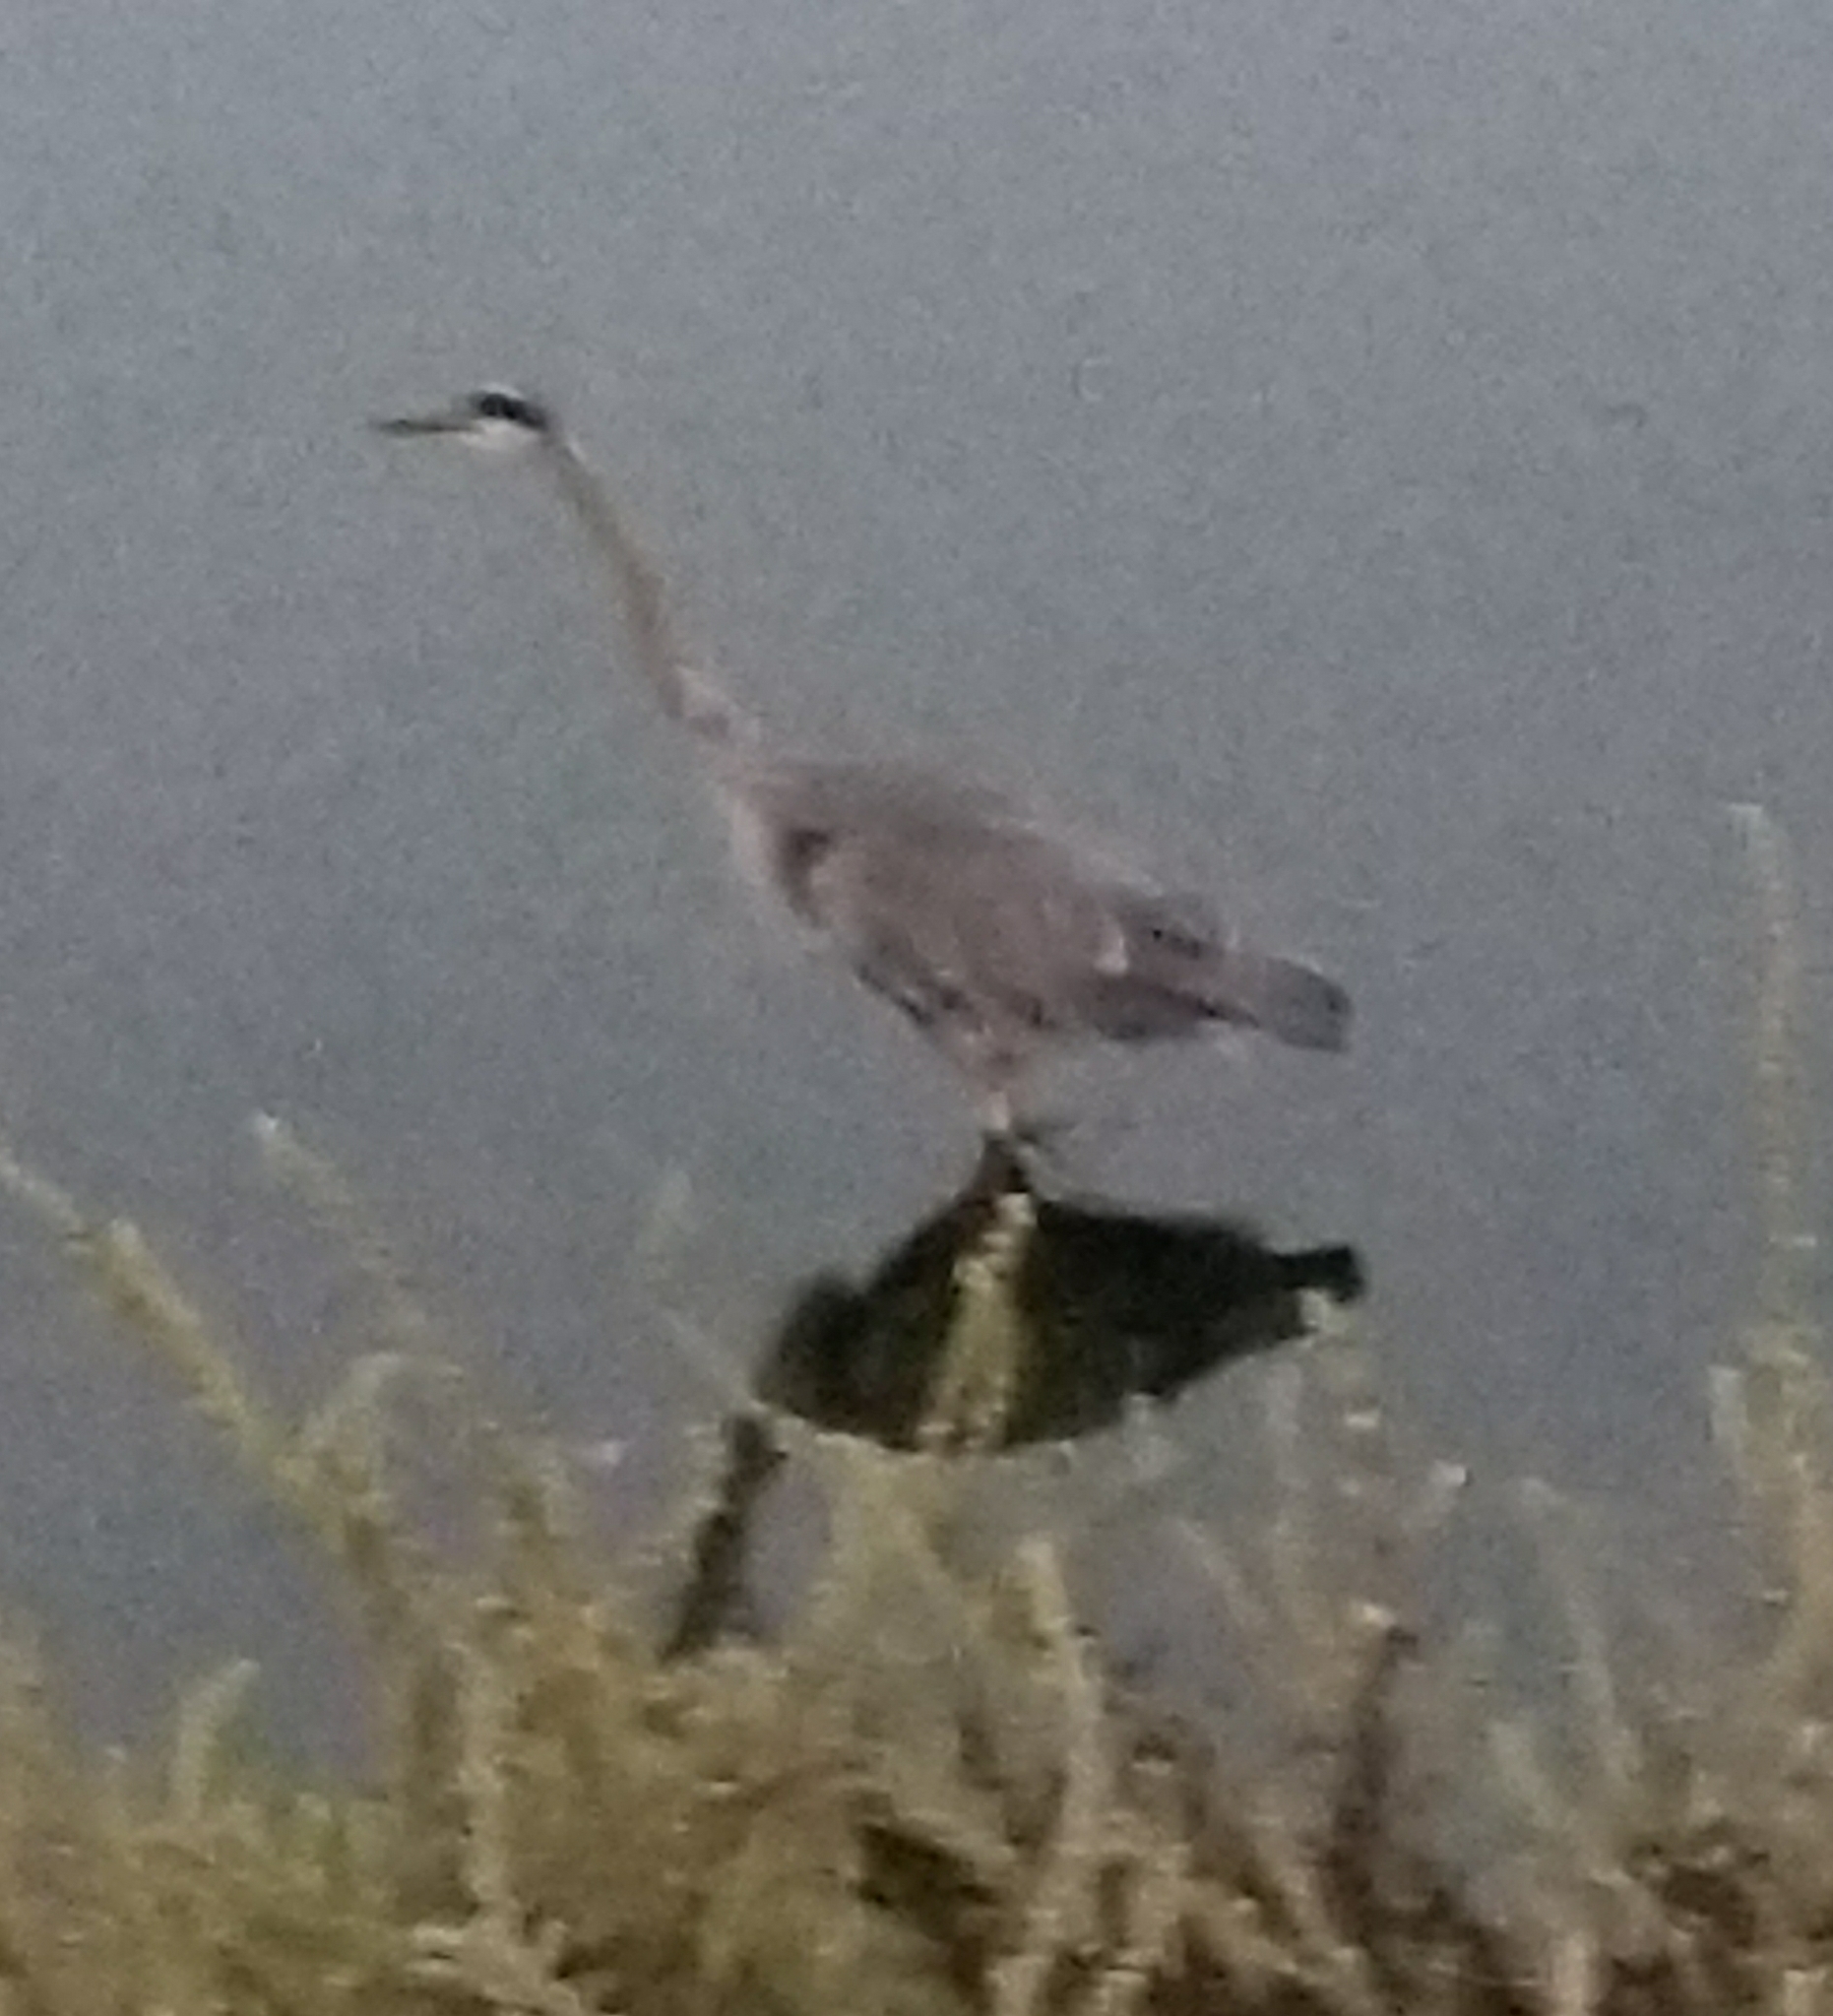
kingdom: Animalia
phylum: Chordata
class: Aves
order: Pelecaniformes
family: Ardeidae
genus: Ardea
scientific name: Ardea herodias
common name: Great blue heron
